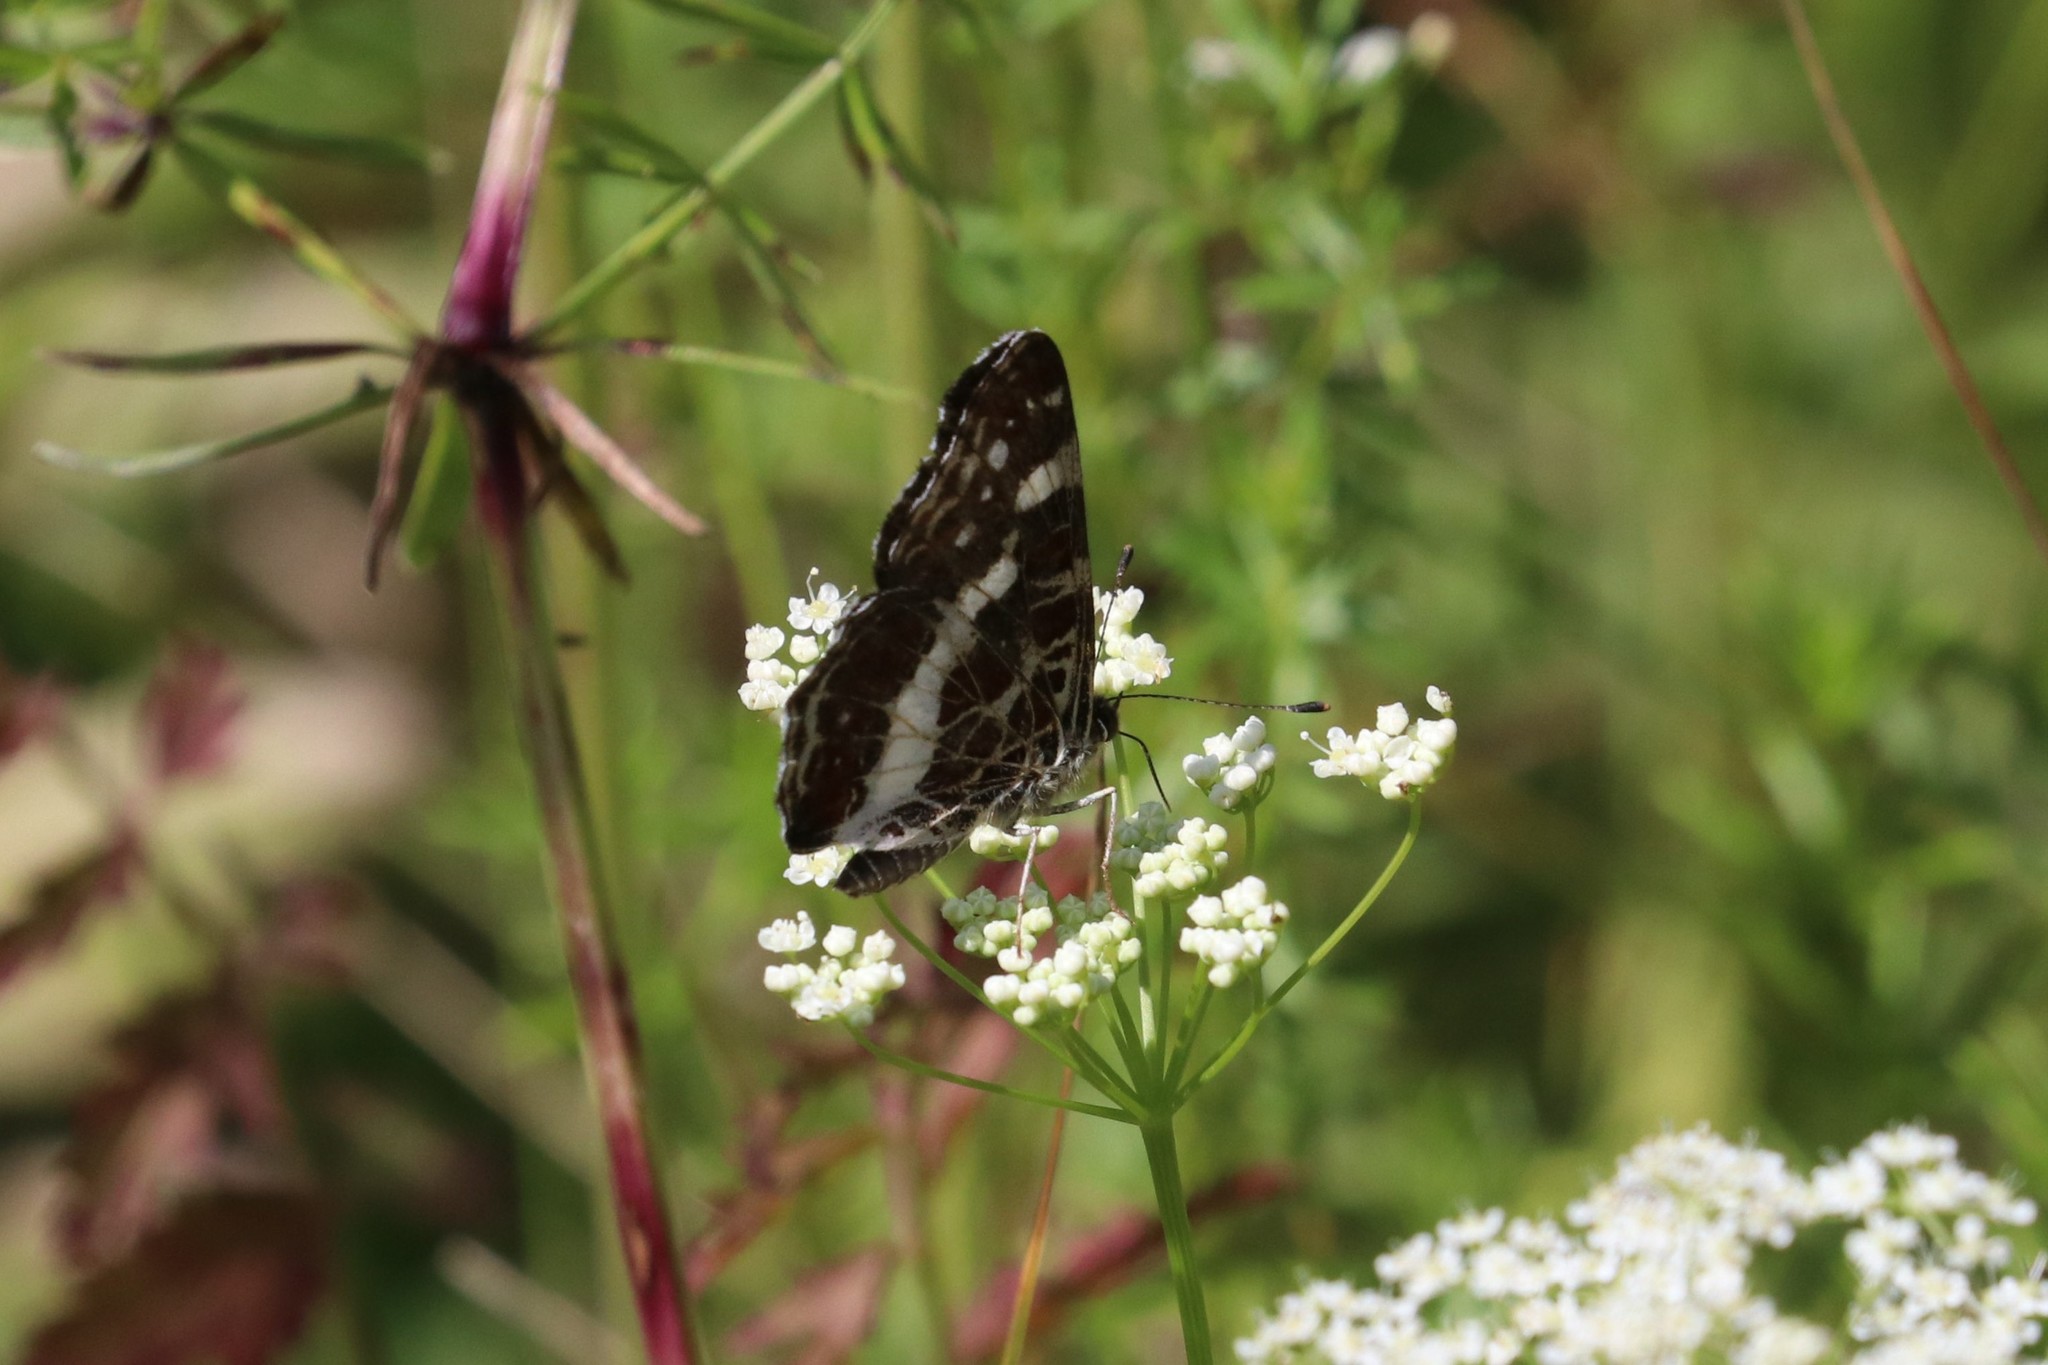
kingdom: Animalia
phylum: Arthropoda
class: Insecta
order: Lepidoptera
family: Nymphalidae
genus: Araschnia
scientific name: Araschnia levana
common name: Map butterfly
